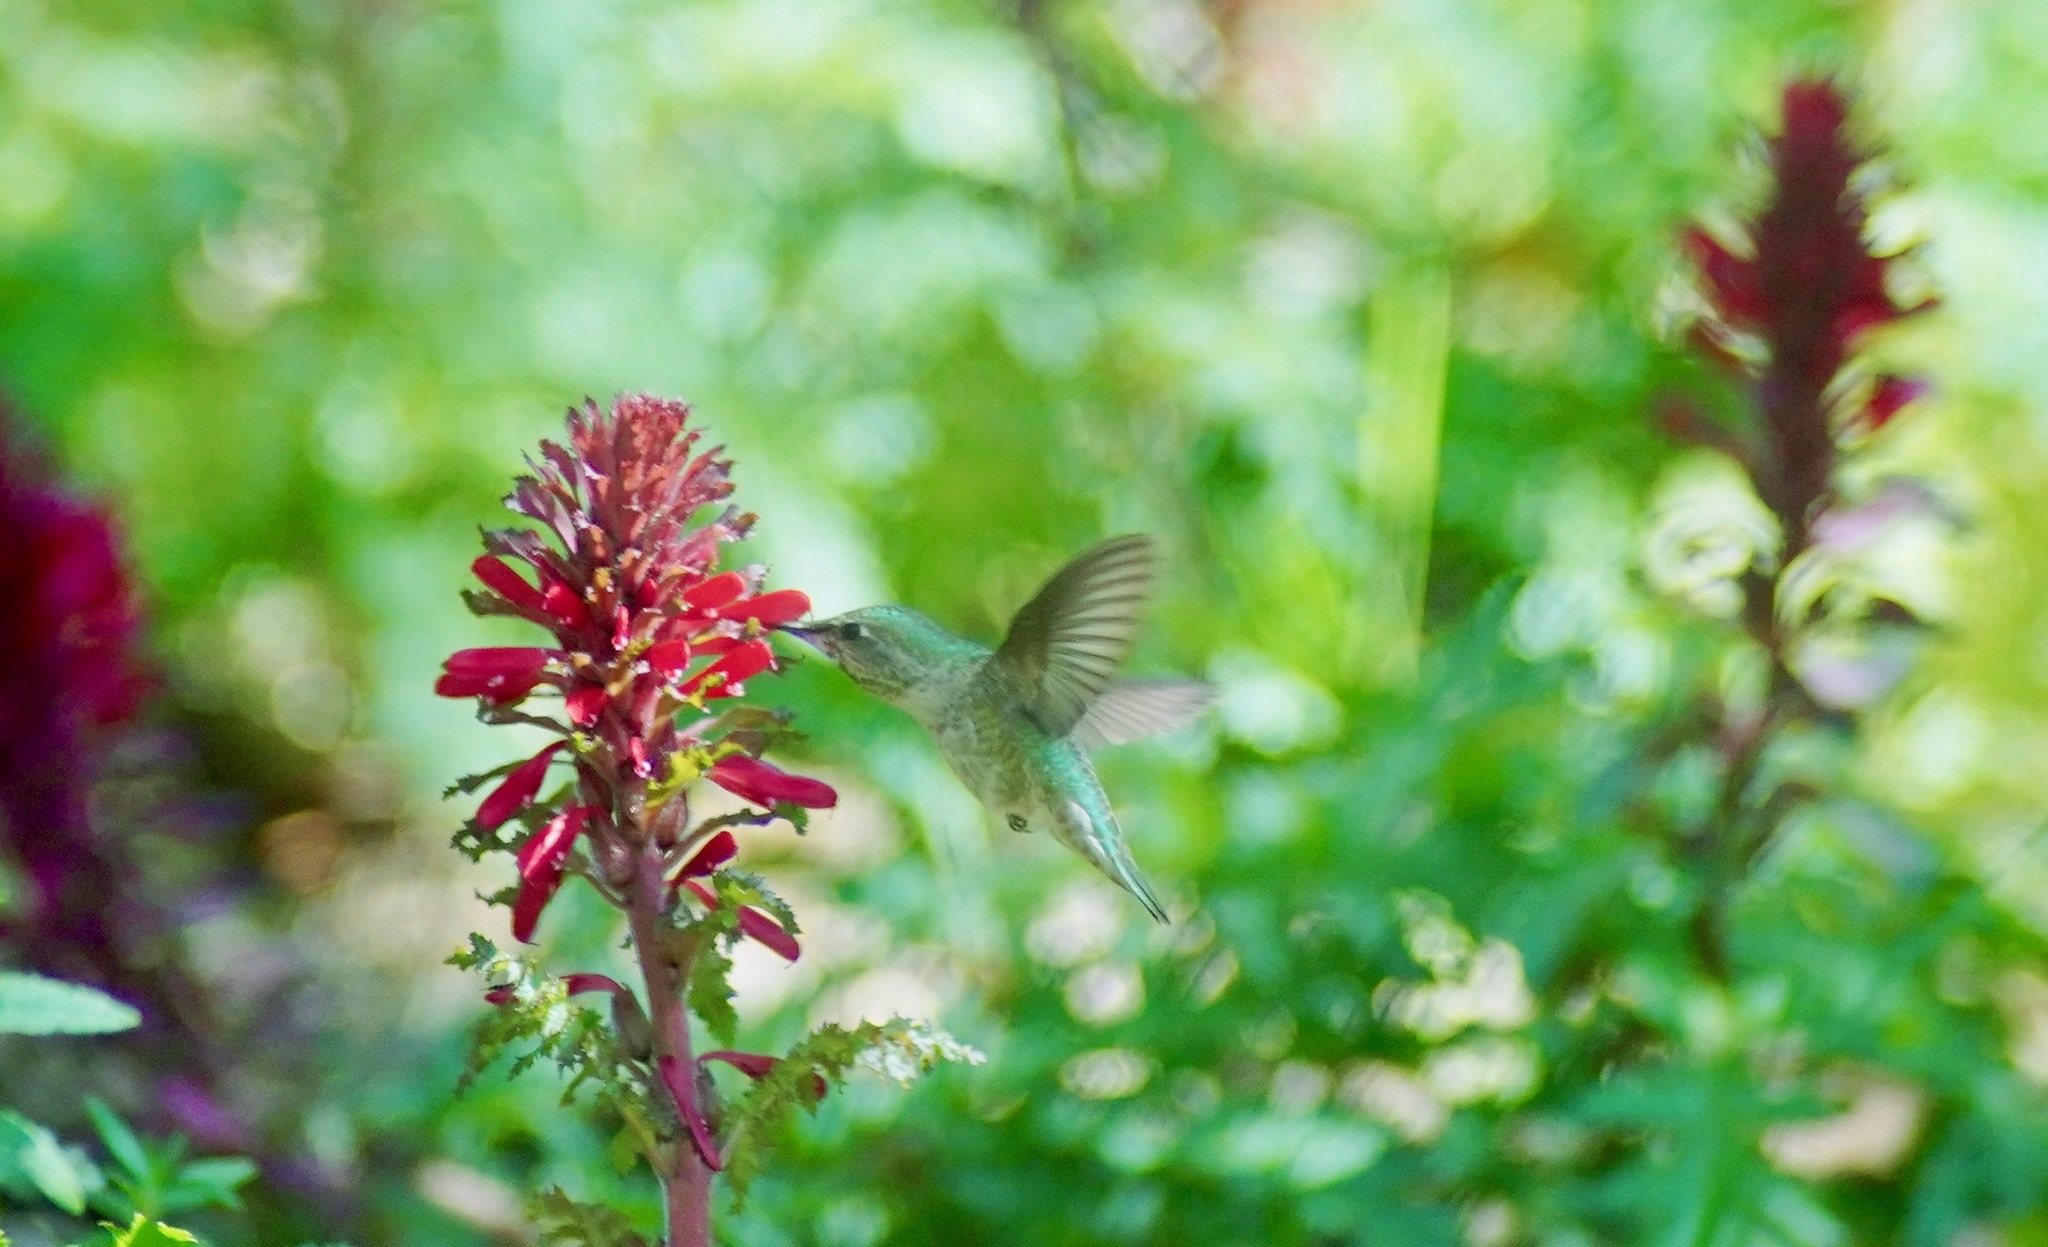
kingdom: Animalia
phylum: Chordata
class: Aves
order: Apodiformes
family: Trochilidae
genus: Calypte
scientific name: Calypte anna
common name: Anna's hummingbird
